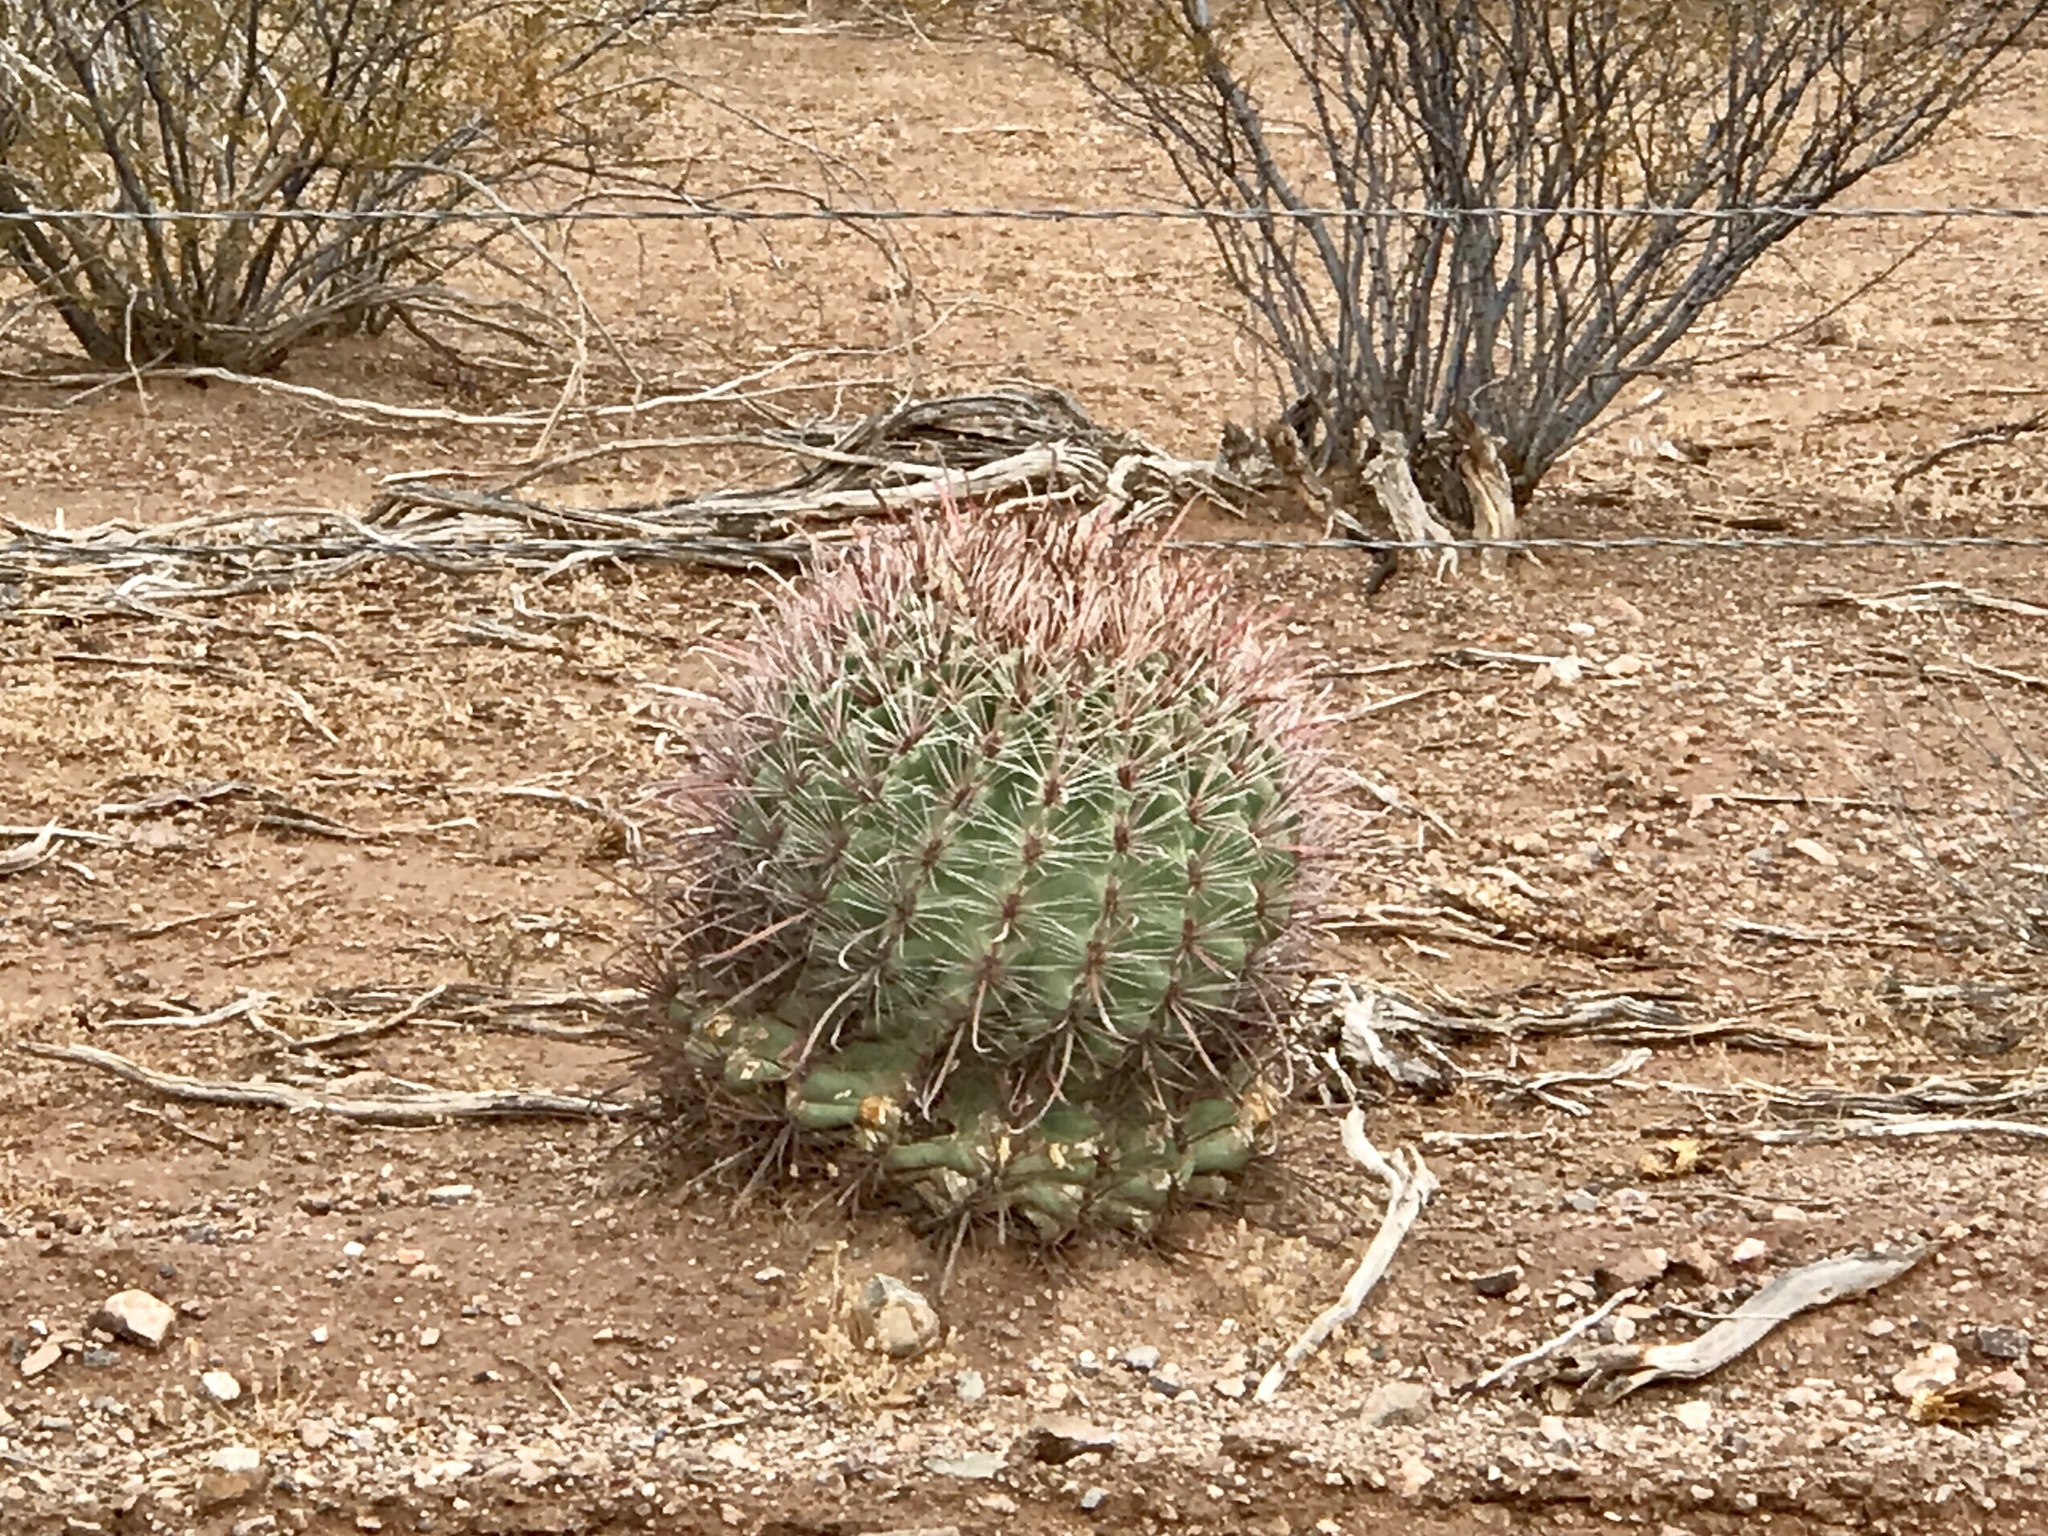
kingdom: Plantae
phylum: Tracheophyta
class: Magnoliopsida
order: Caryophyllales
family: Cactaceae
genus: Ferocactus
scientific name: Ferocactus wislizeni
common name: Candy barrel cactus
